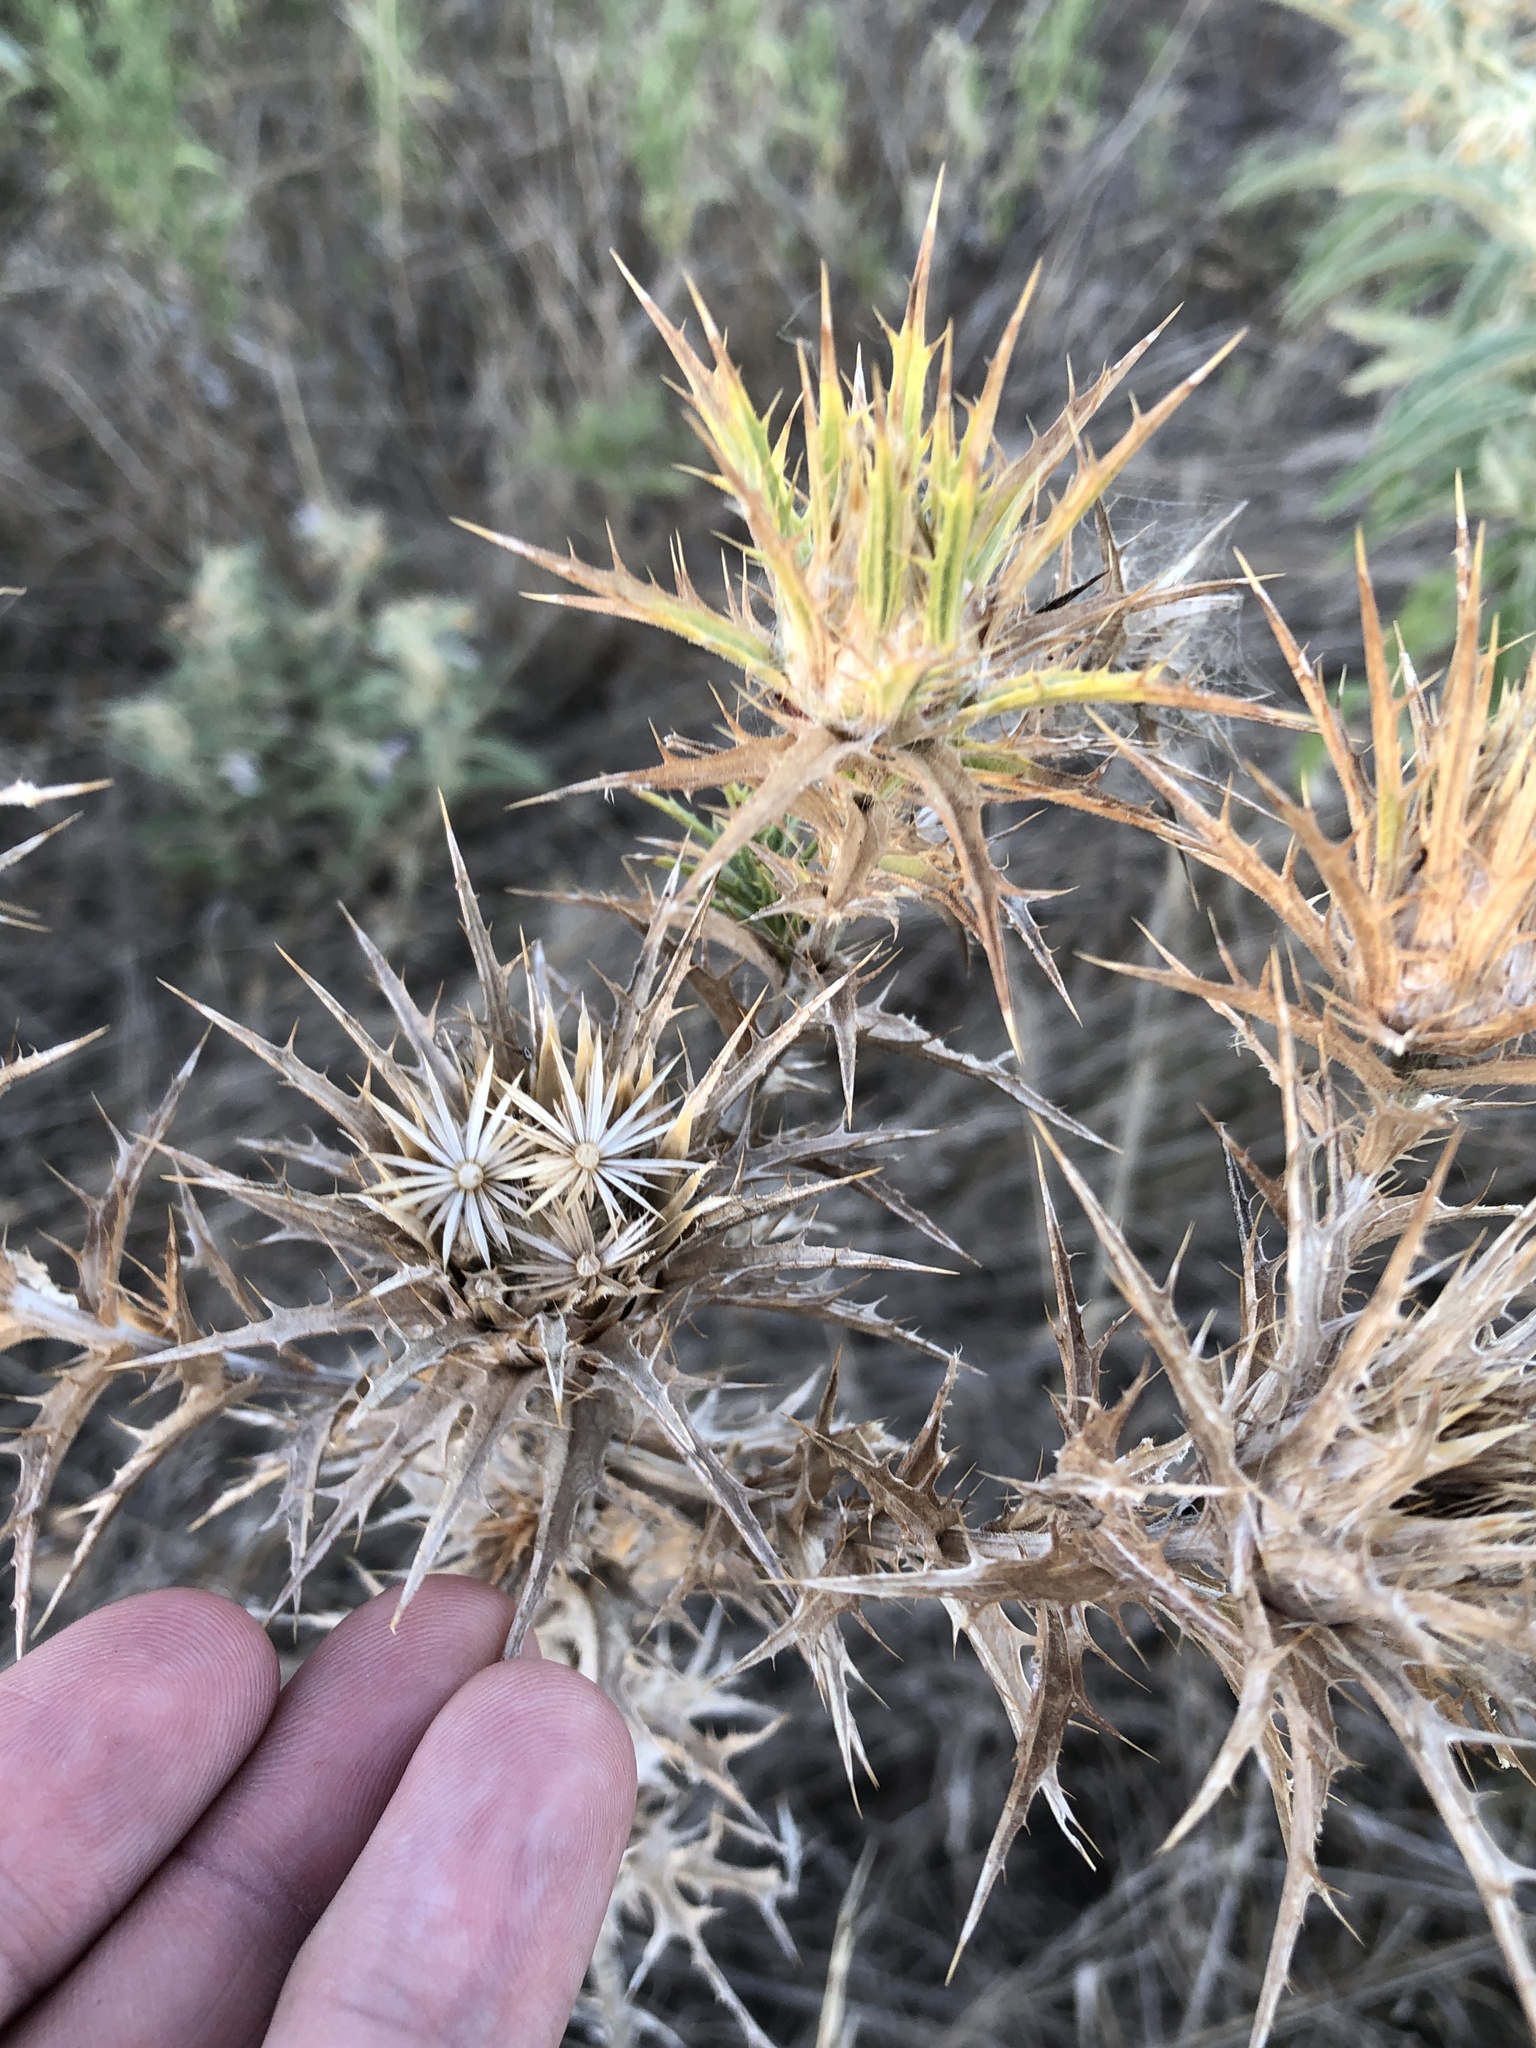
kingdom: Plantae
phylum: Tracheophyta
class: Magnoliopsida
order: Asterales
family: Asteraceae
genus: Carthamus
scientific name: Carthamus lanatus
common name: Downy safflower
